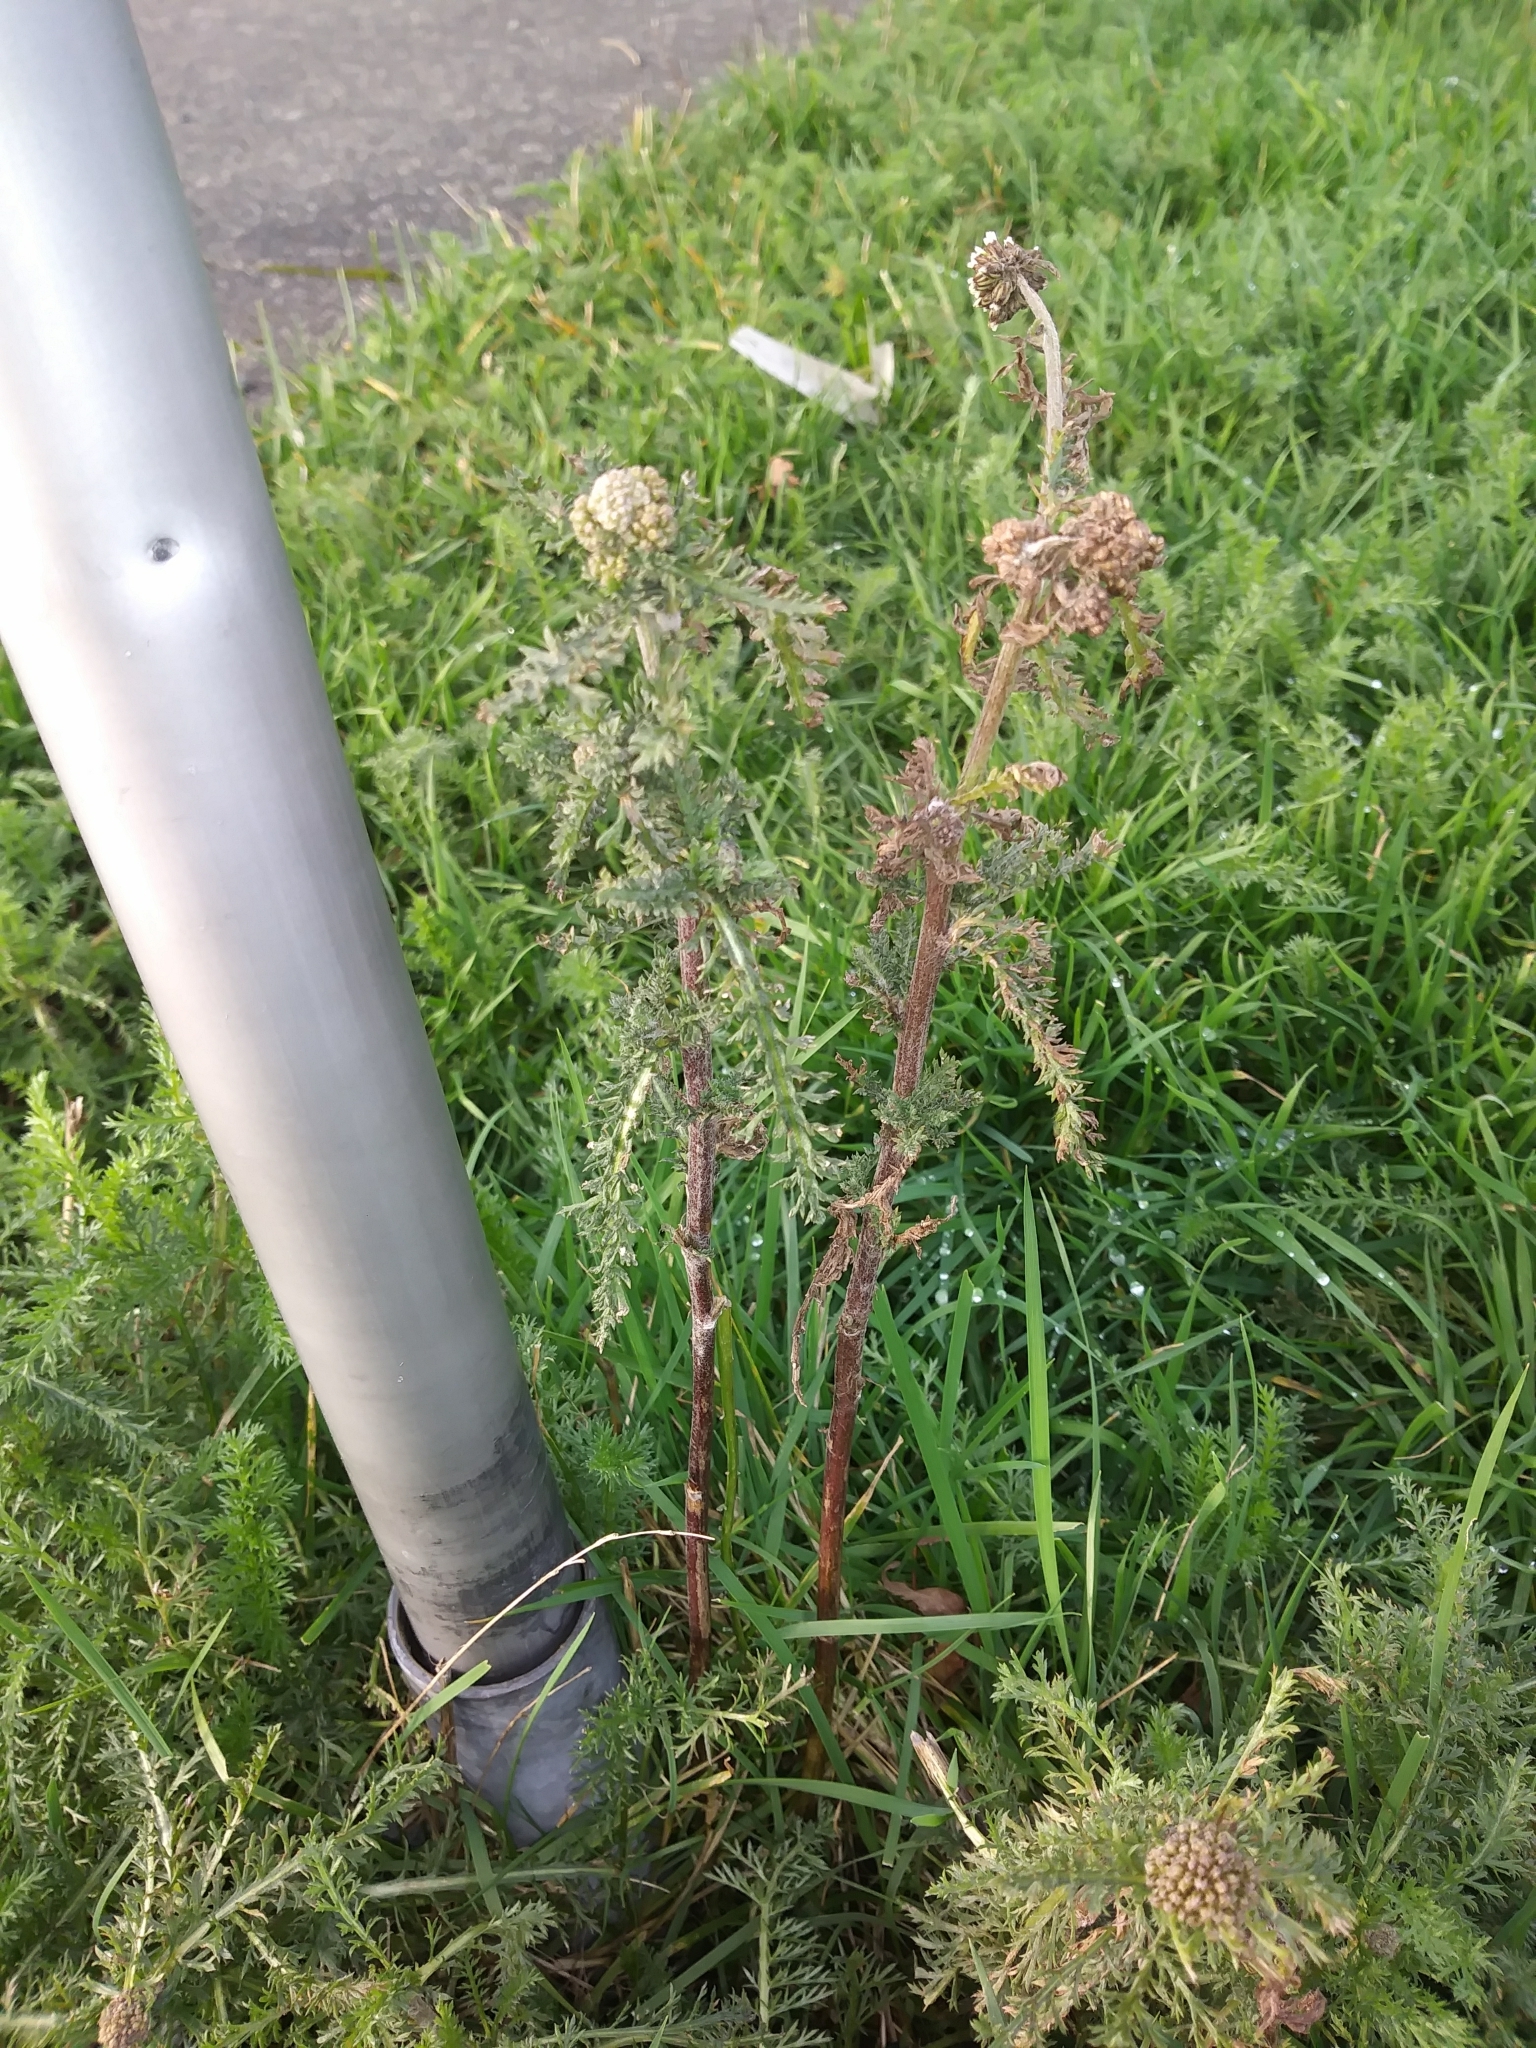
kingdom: Plantae
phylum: Tracheophyta
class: Magnoliopsida
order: Asterales
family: Asteraceae
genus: Achillea
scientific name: Achillea millefolium
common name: Yarrow
